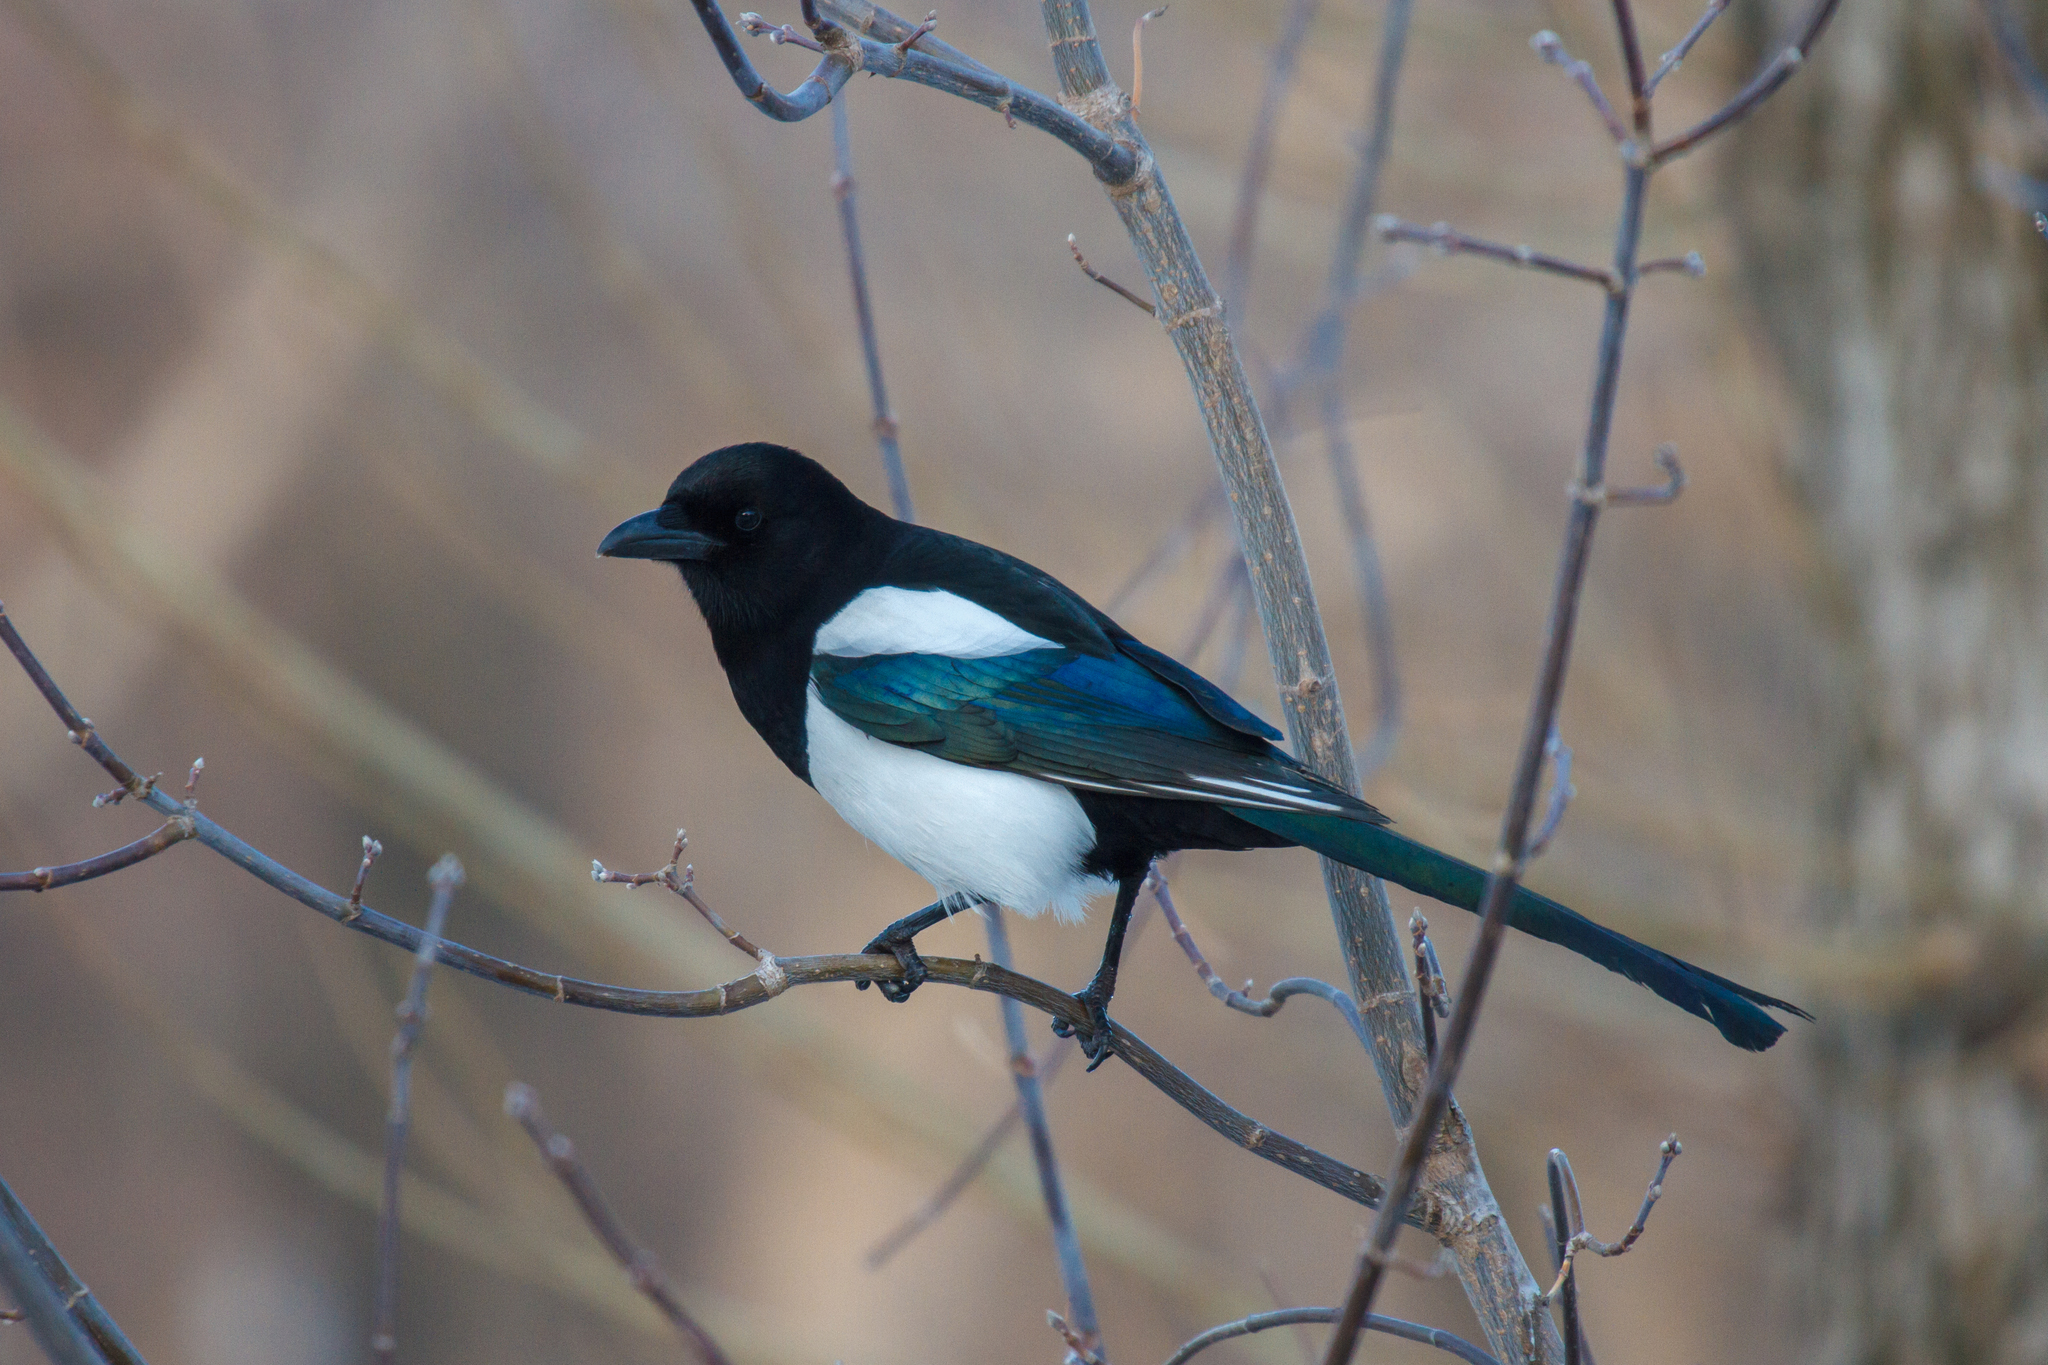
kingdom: Animalia
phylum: Chordata
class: Aves
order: Passeriformes
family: Corvidae
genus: Pica
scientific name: Pica pica
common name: Eurasian magpie
